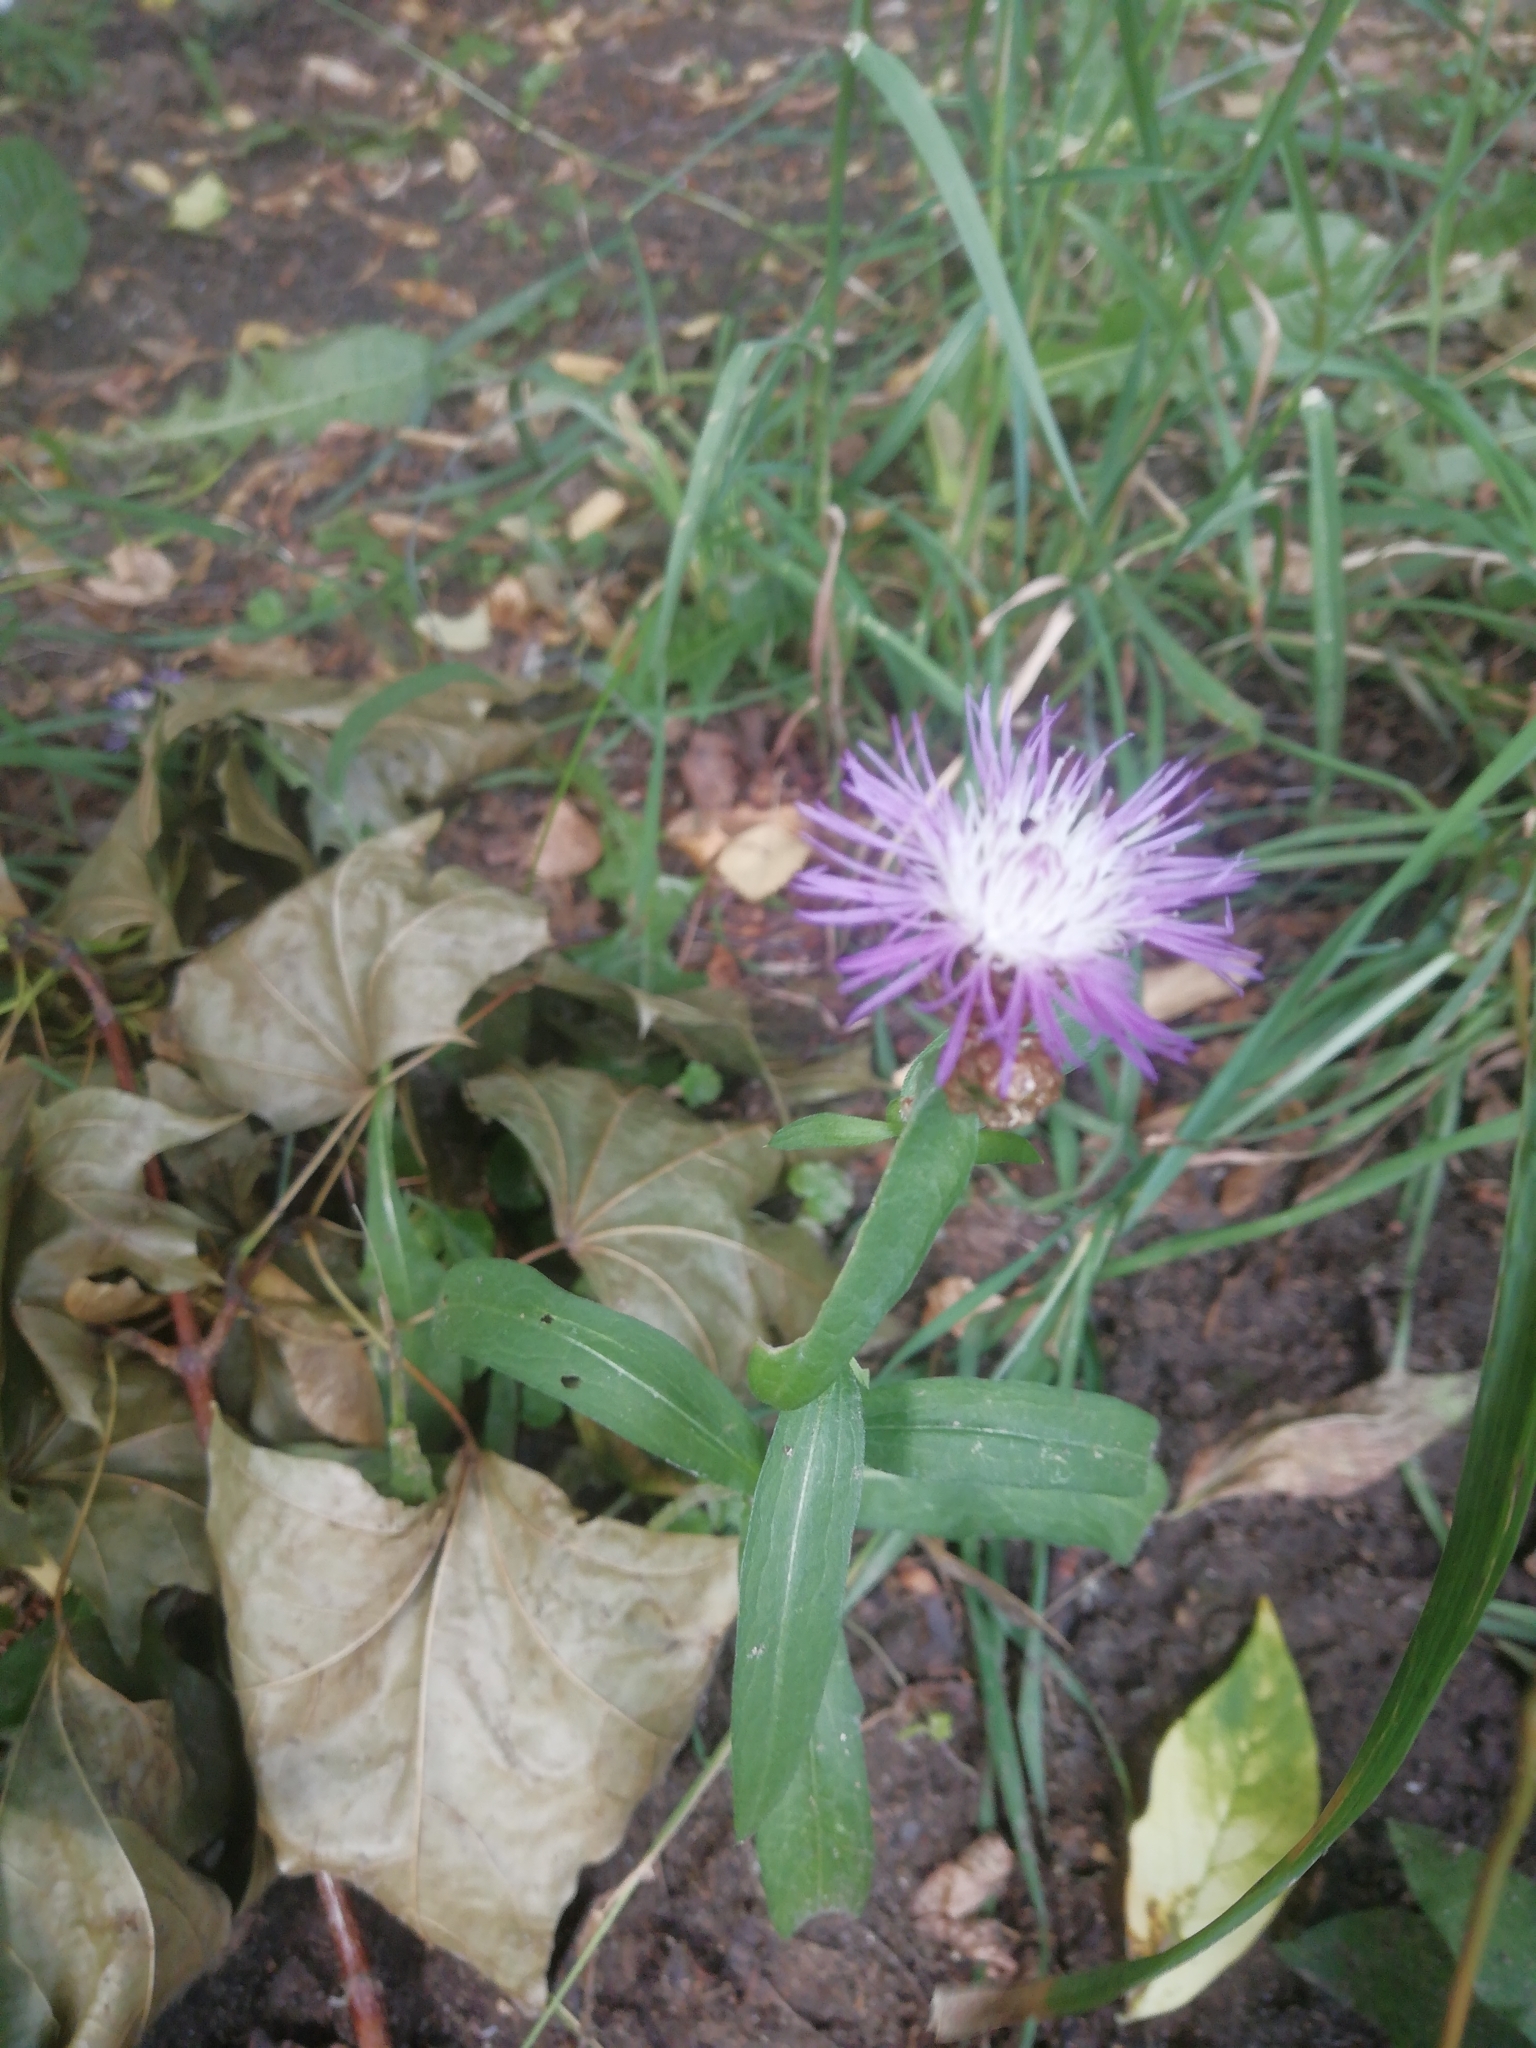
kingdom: Plantae
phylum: Tracheophyta
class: Magnoliopsida
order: Asterales
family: Asteraceae
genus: Centaurea
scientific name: Centaurea jacea
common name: Brown knapweed
